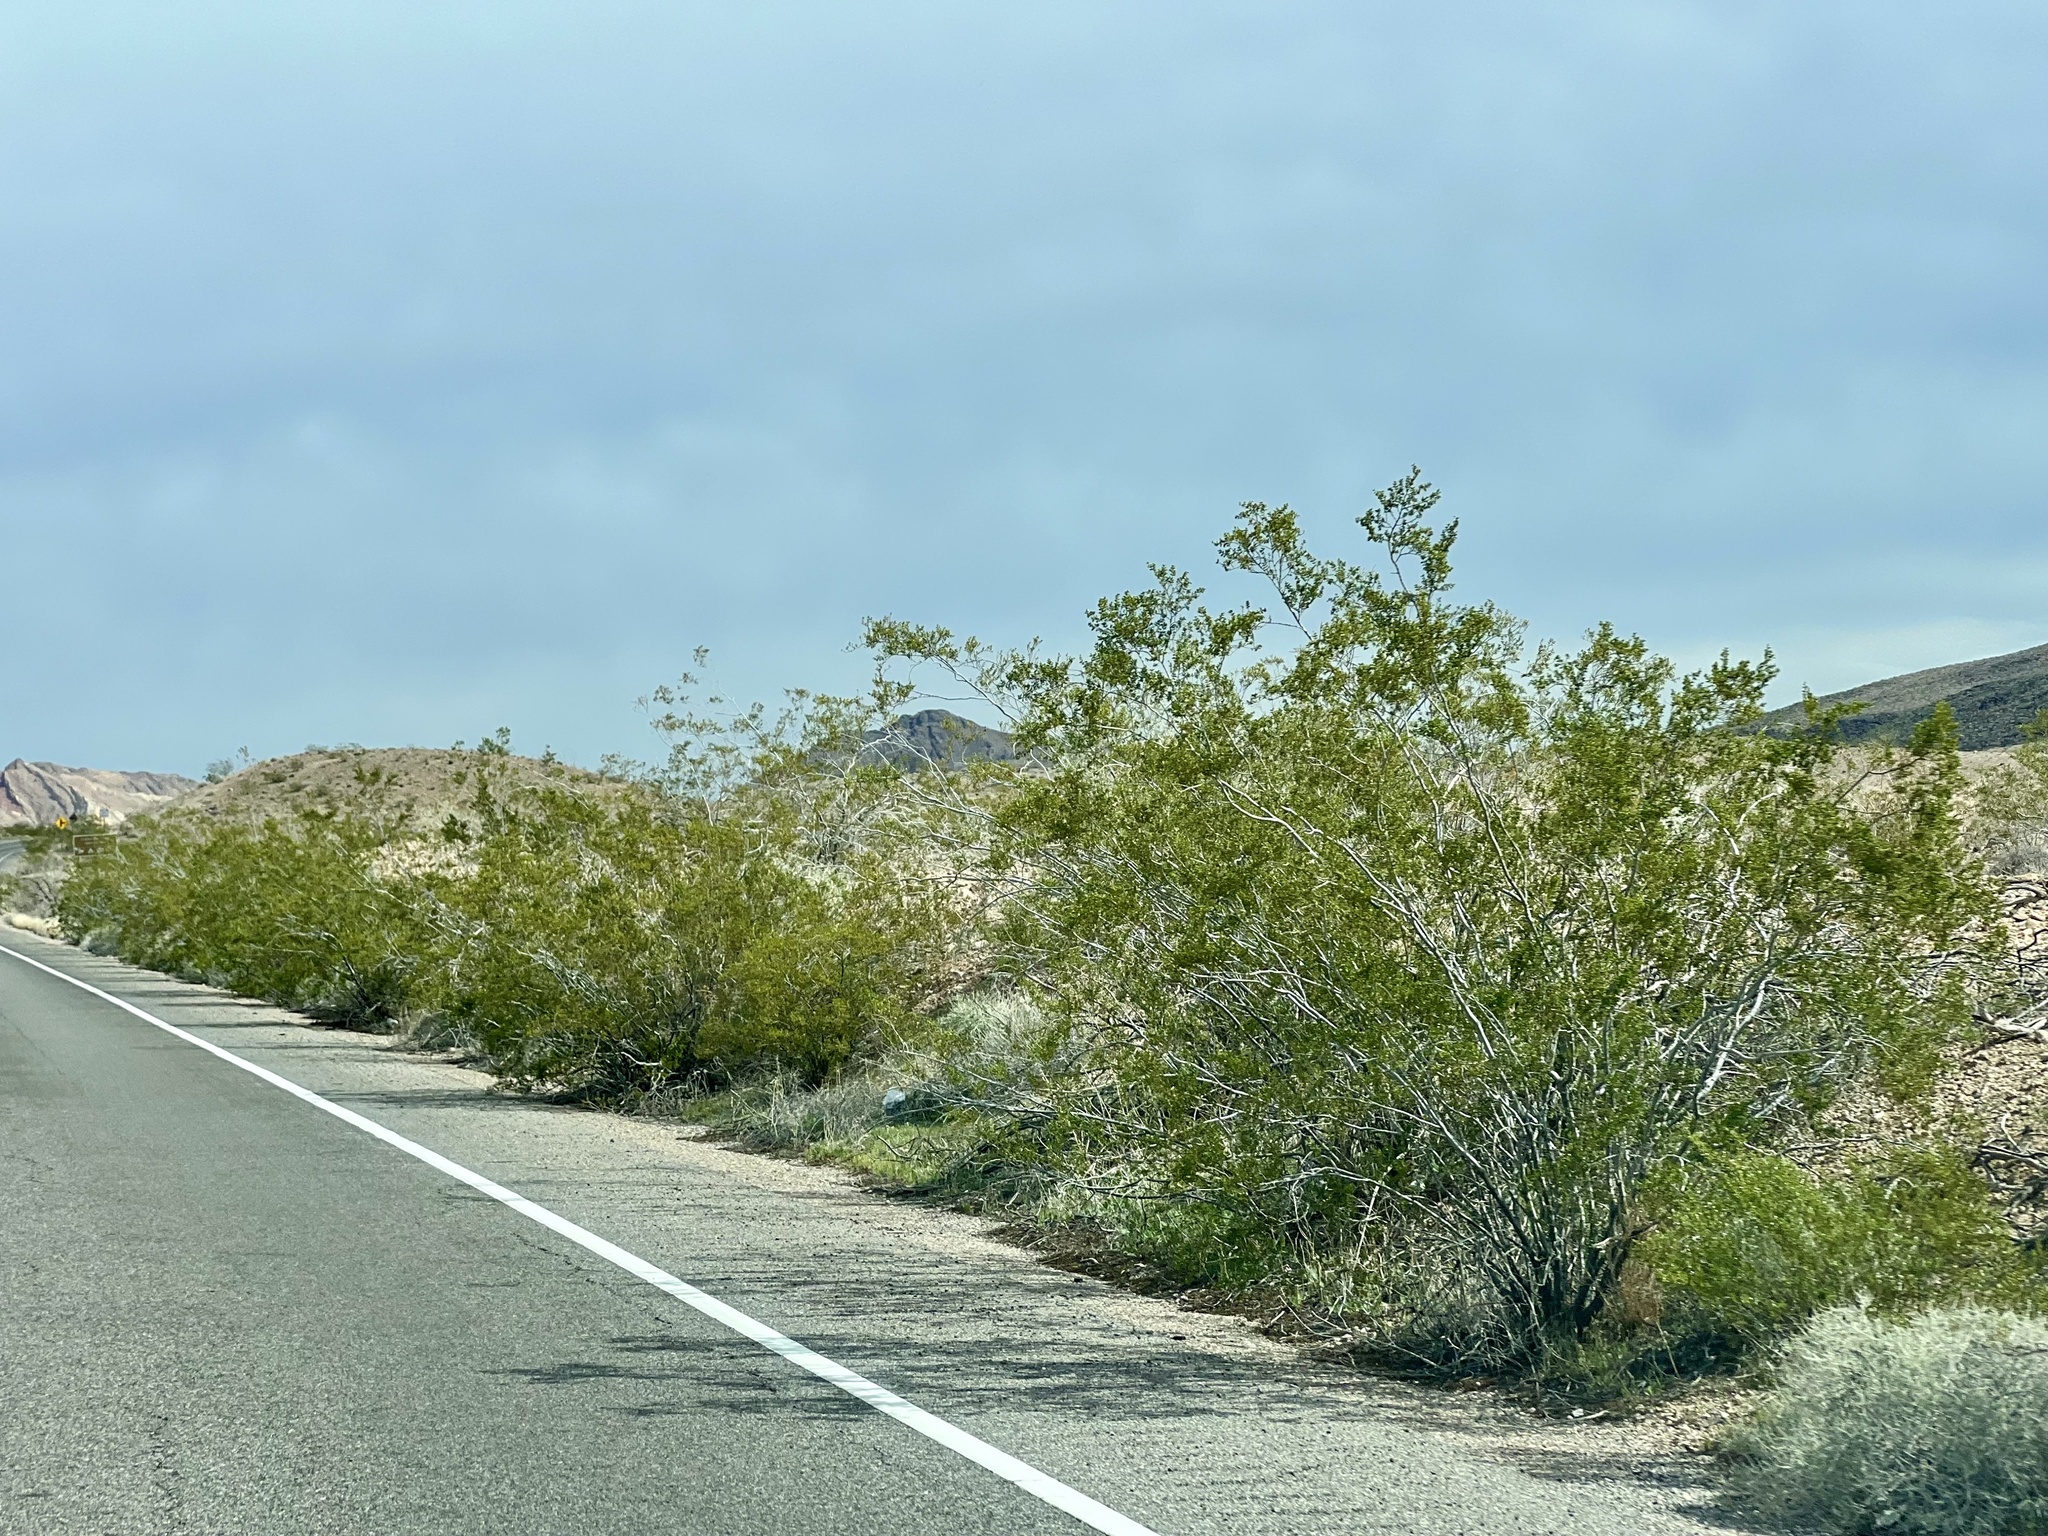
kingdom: Plantae
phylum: Tracheophyta
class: Magnoliopsida
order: Zygophyllales
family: Zygophyllaceae
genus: Larrea
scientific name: Larrea tridentata
